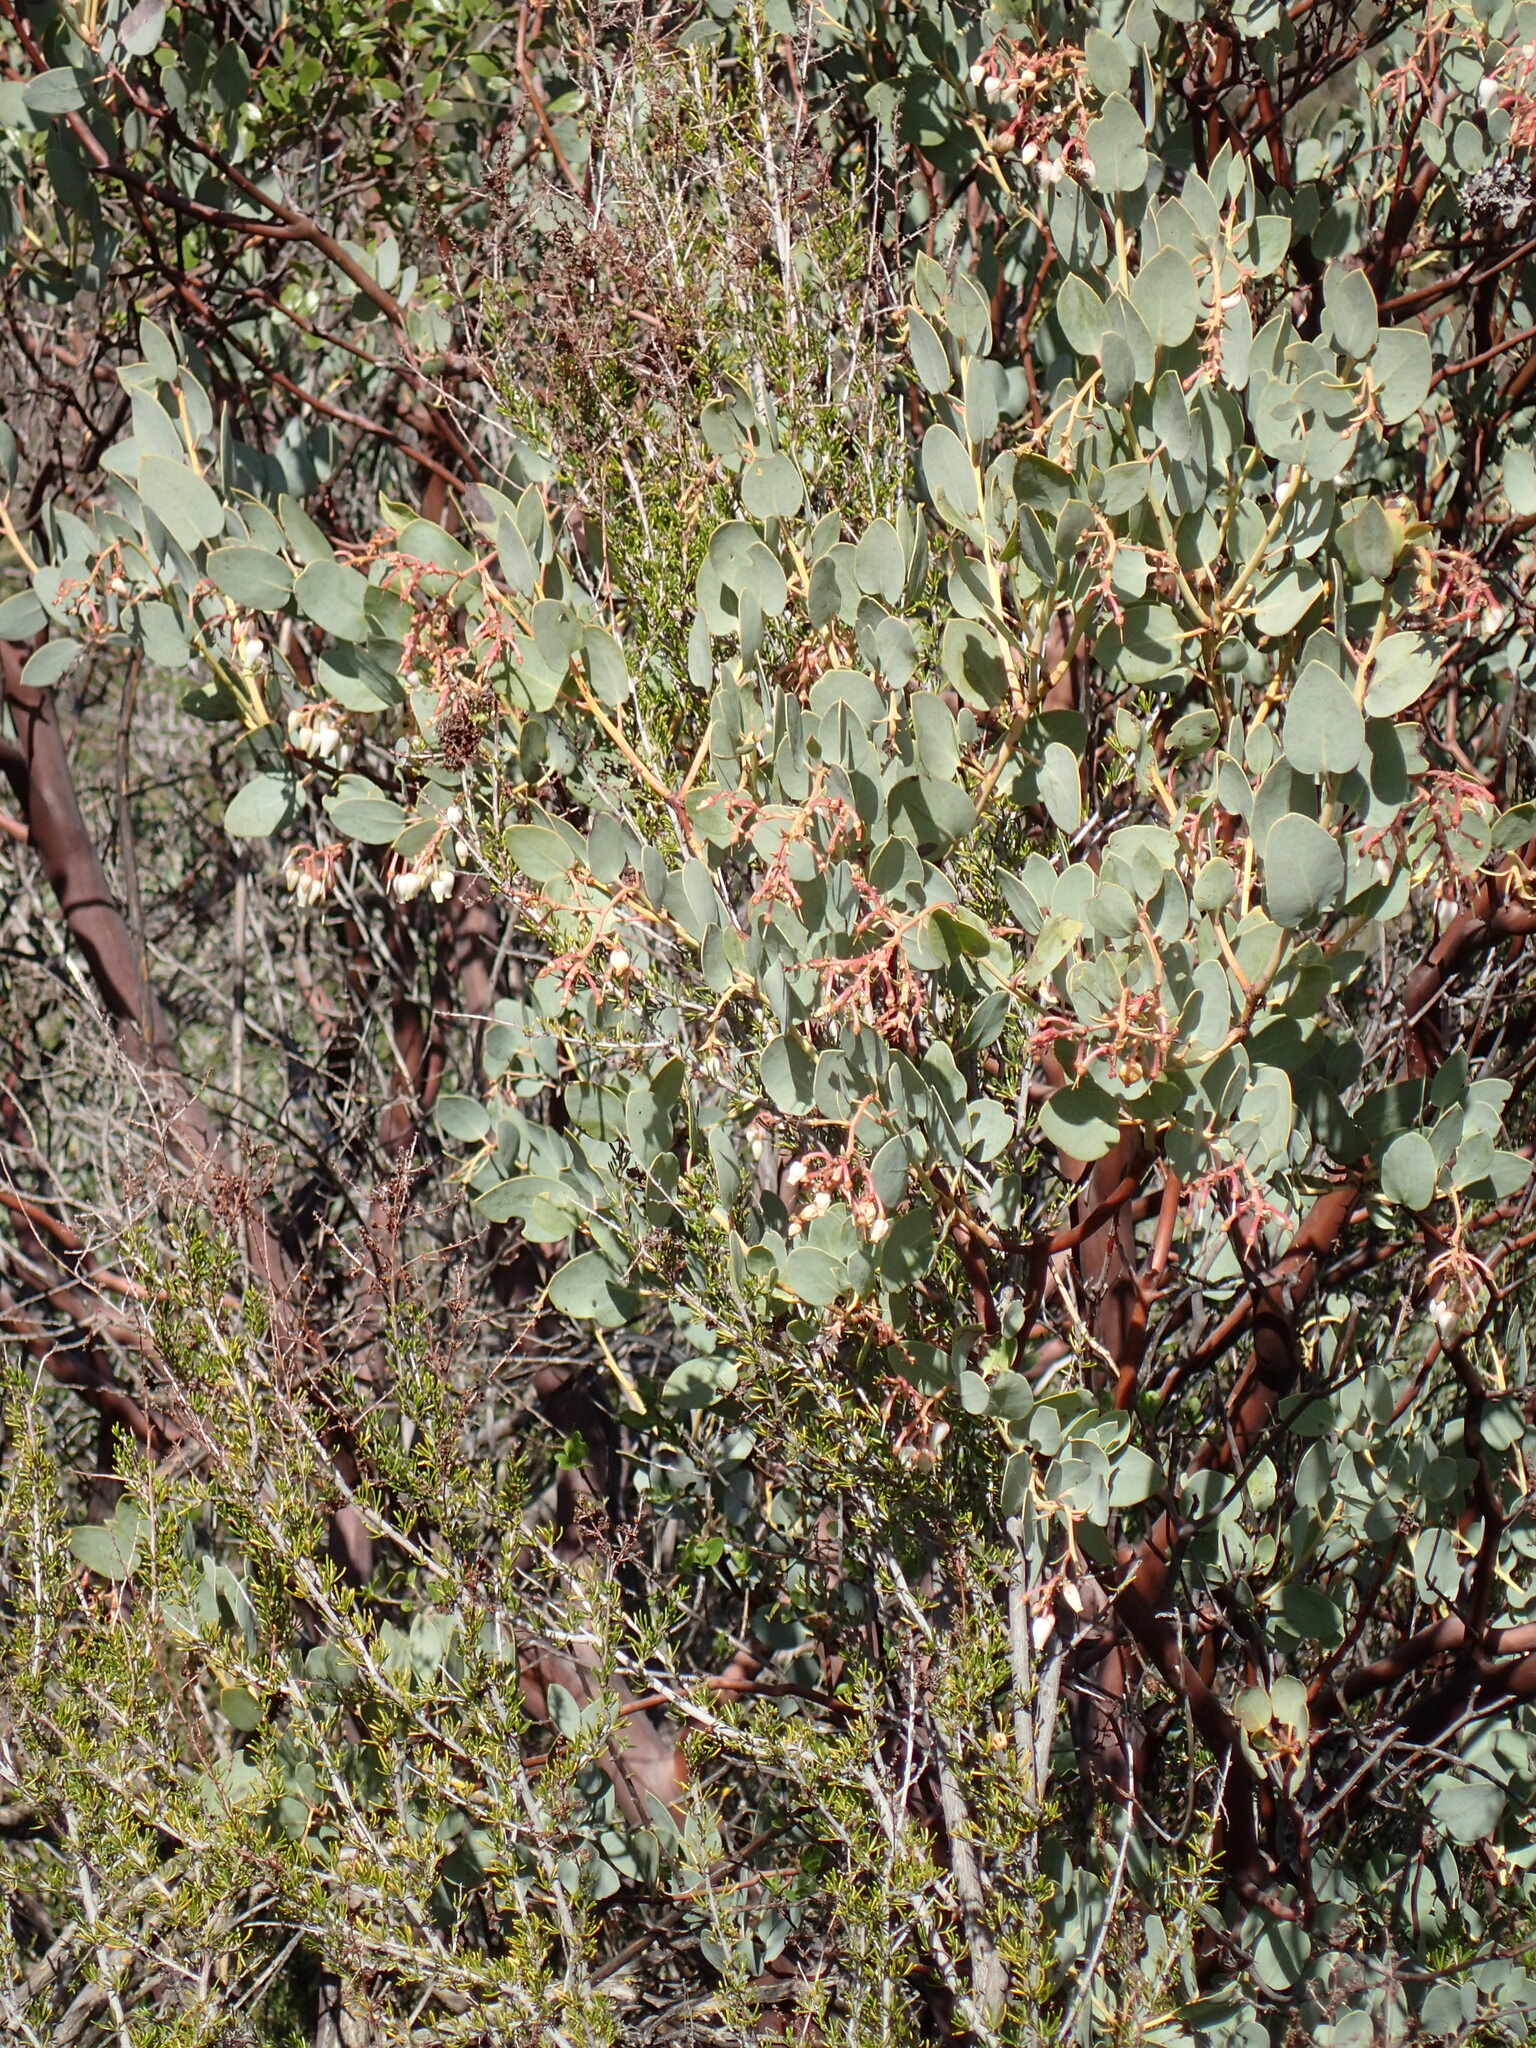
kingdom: Plantae
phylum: Tracheophyta
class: Magnoliopsida
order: Ericales
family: Ericaceae
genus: Arctostaphylos
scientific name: Arctostaphylos glauca
